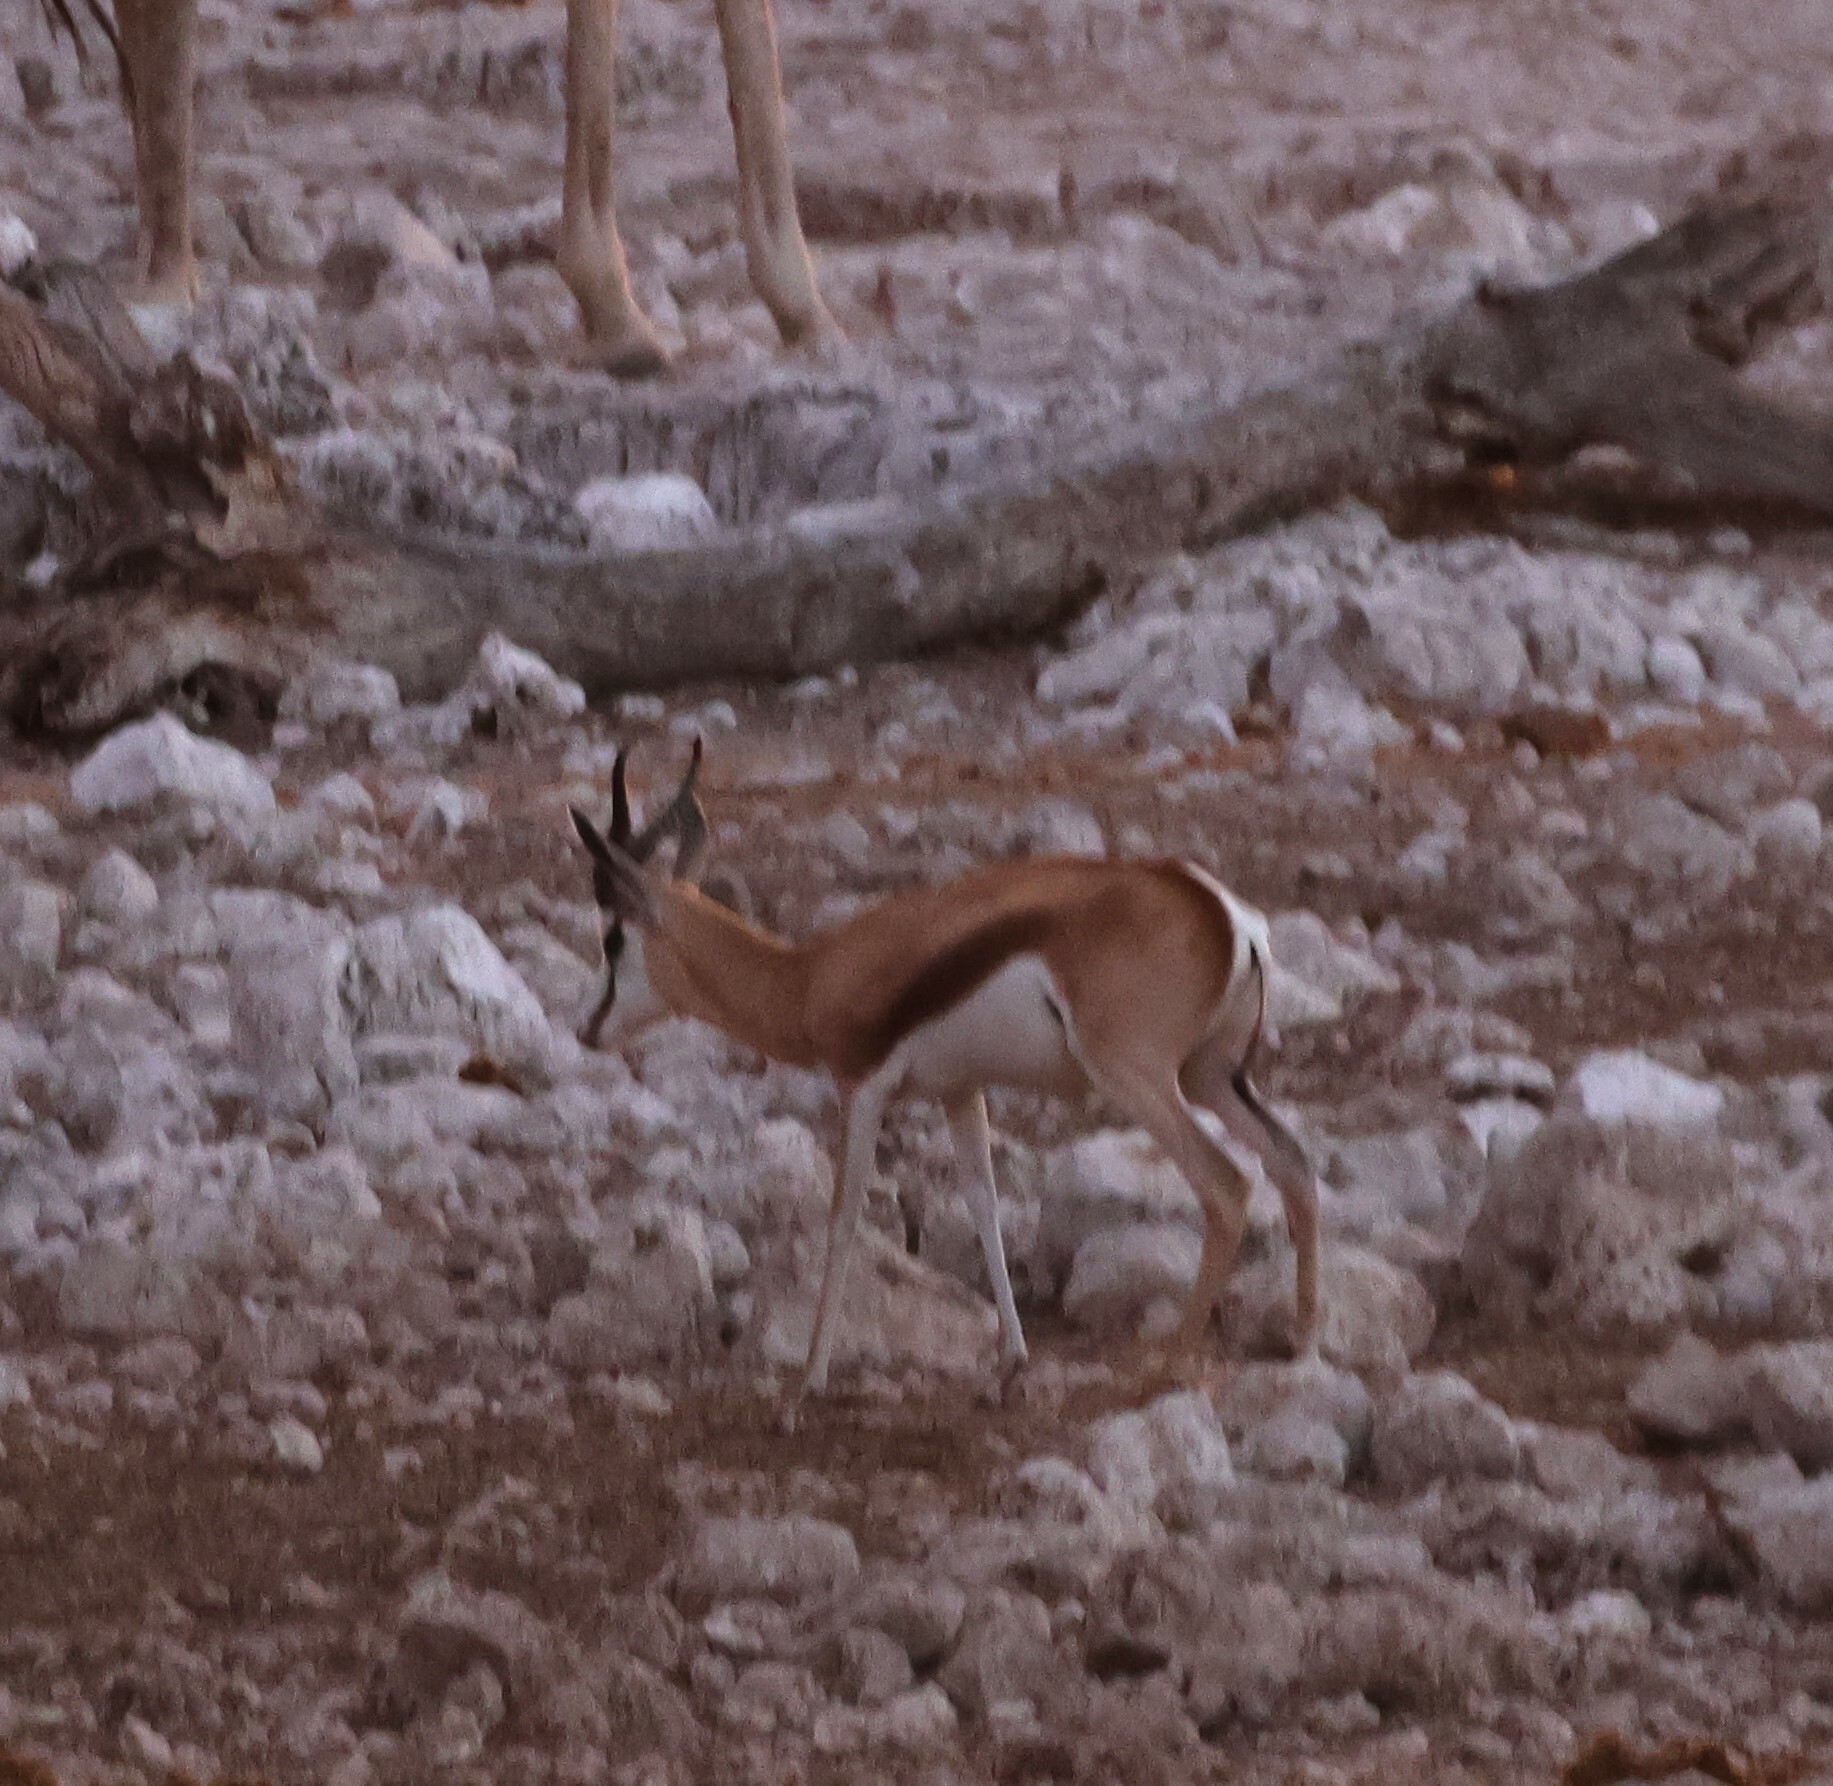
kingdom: Animalia
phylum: Chordata
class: Mammalia
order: Artiodactyla
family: Bovidae
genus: Antidorcas
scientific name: Antidorcas marsupialis
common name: Springbok
